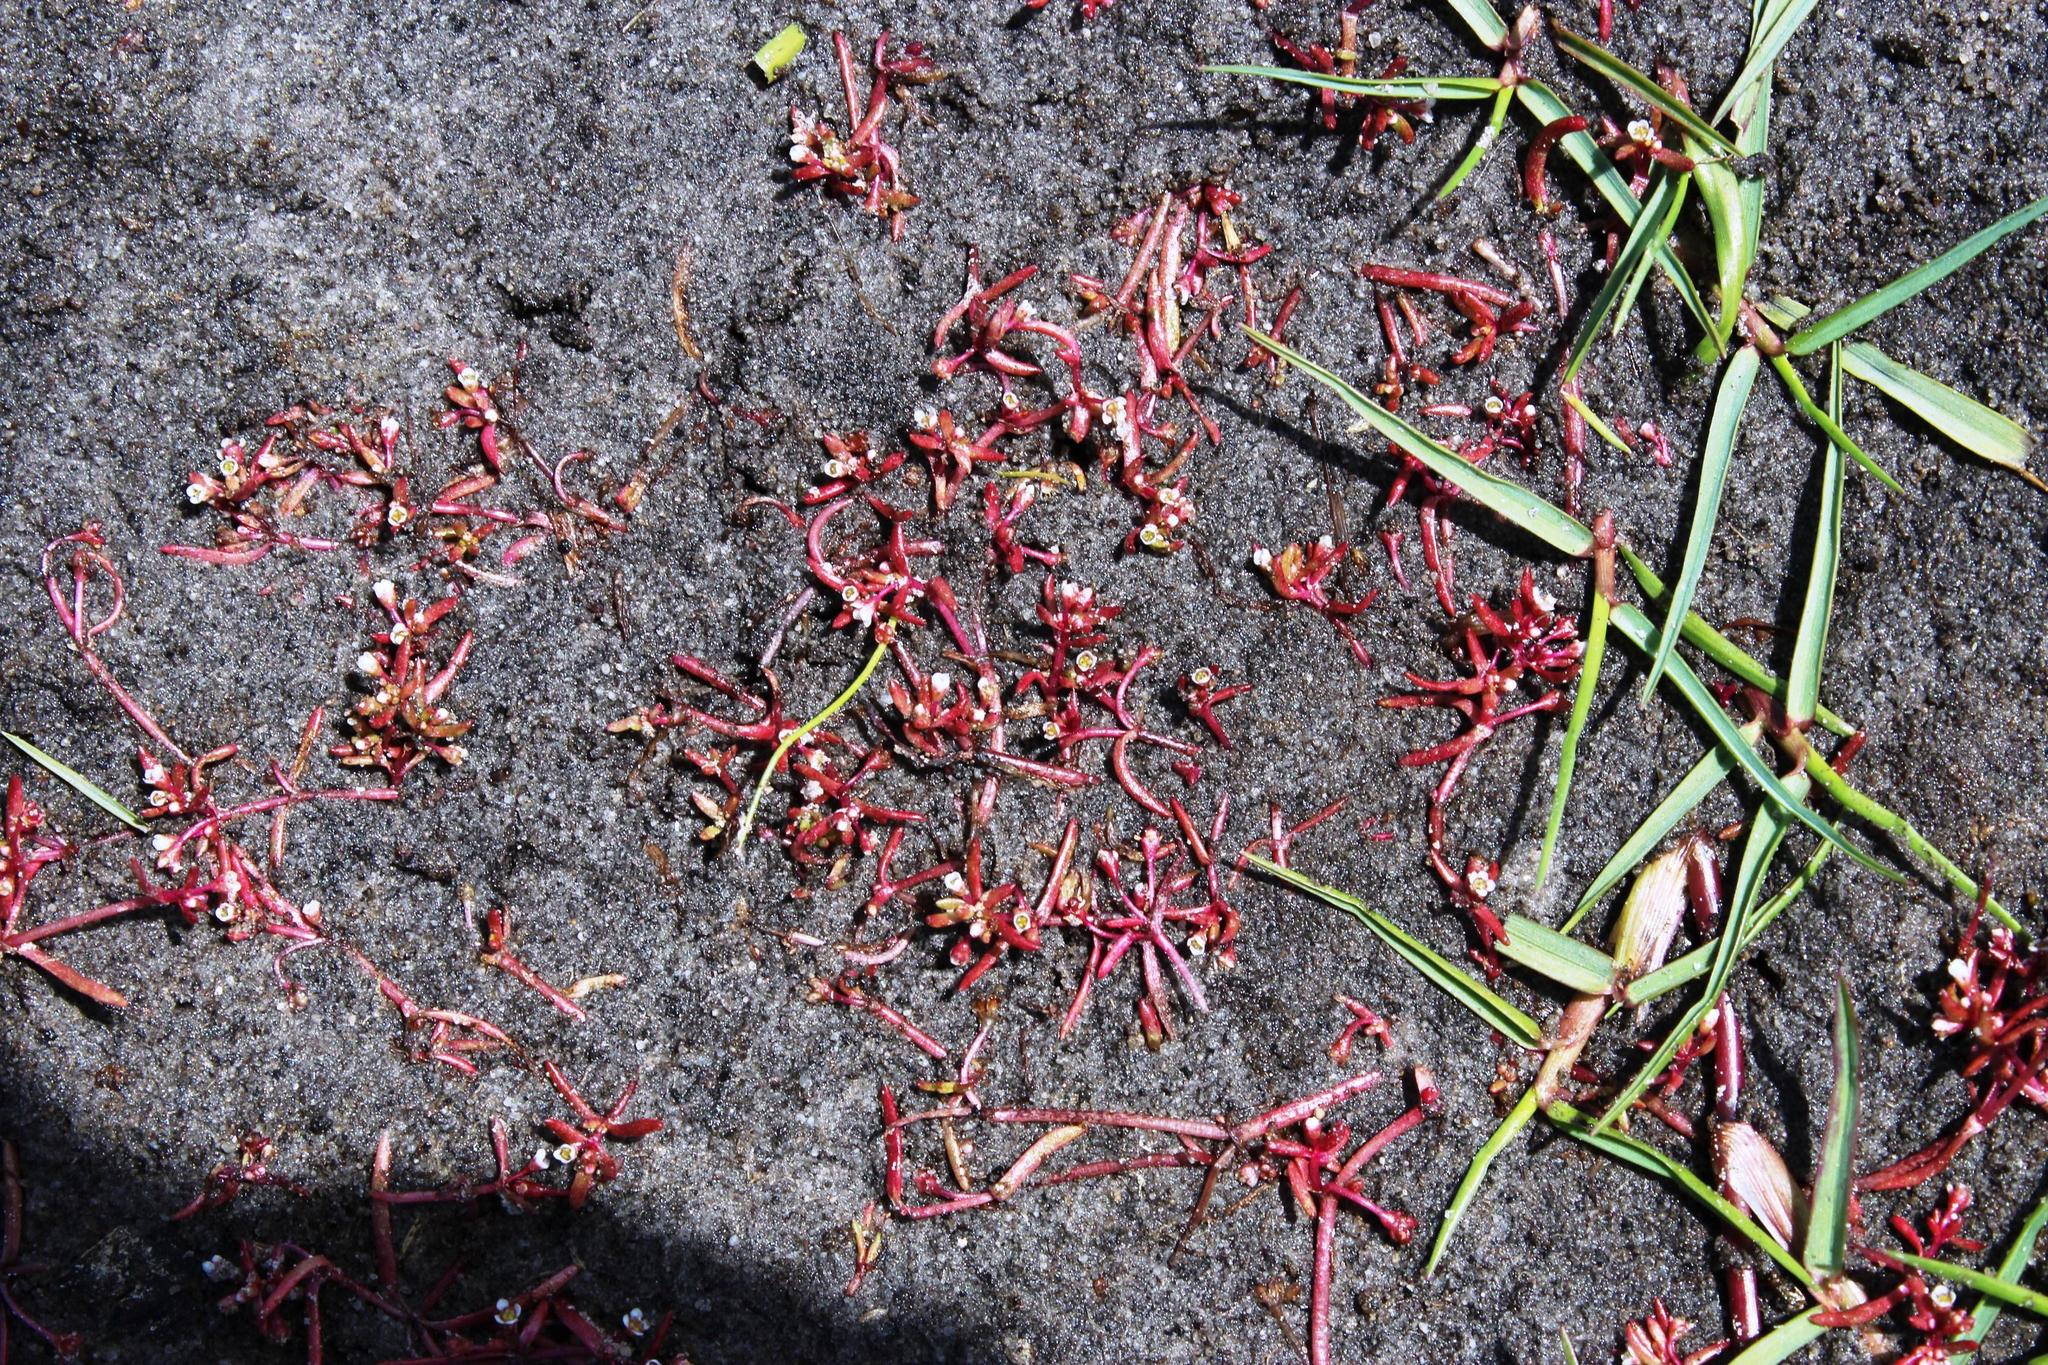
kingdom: Plantae
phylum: Tracheophyta
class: Magnoliopsida
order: Saxifragales
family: Crassulaceae
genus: Crassula
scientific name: Crassula natans
